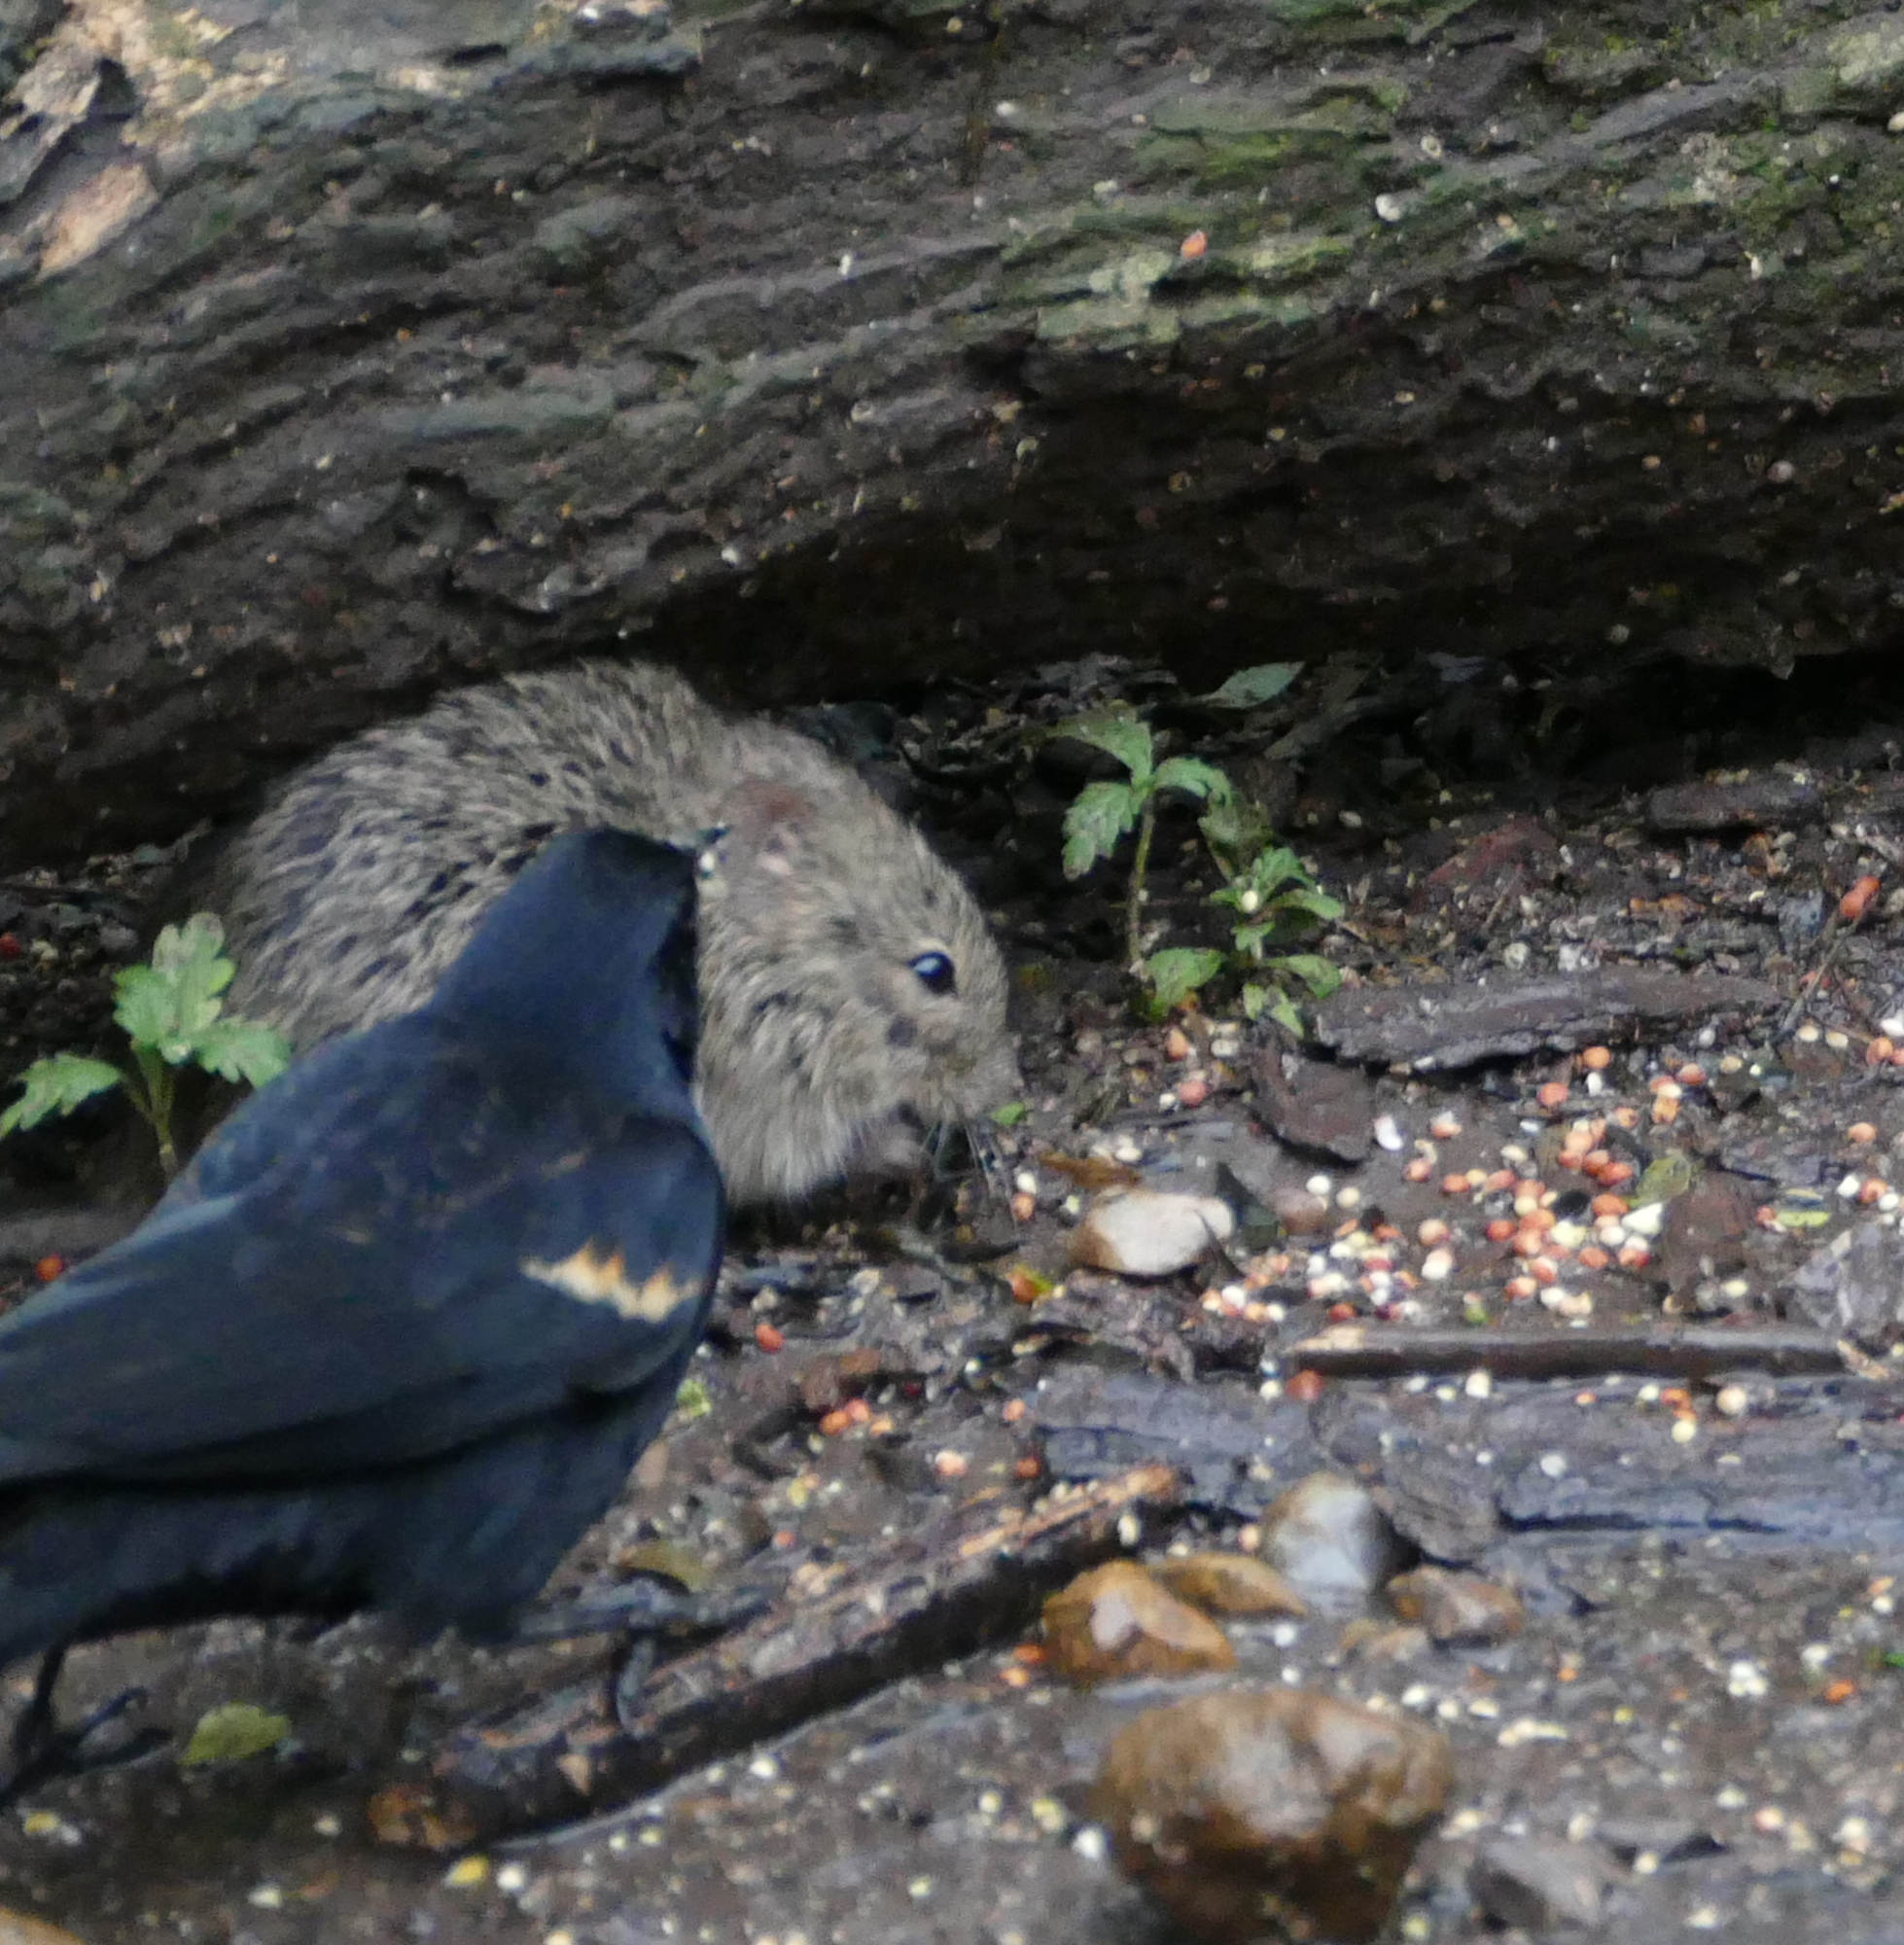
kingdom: Animalia
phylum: Chordata
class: Mammalia
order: Rodentia
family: Cricetidae
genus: Sigmodon
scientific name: Sigmodon hispidus
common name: Hispid cotton rat
